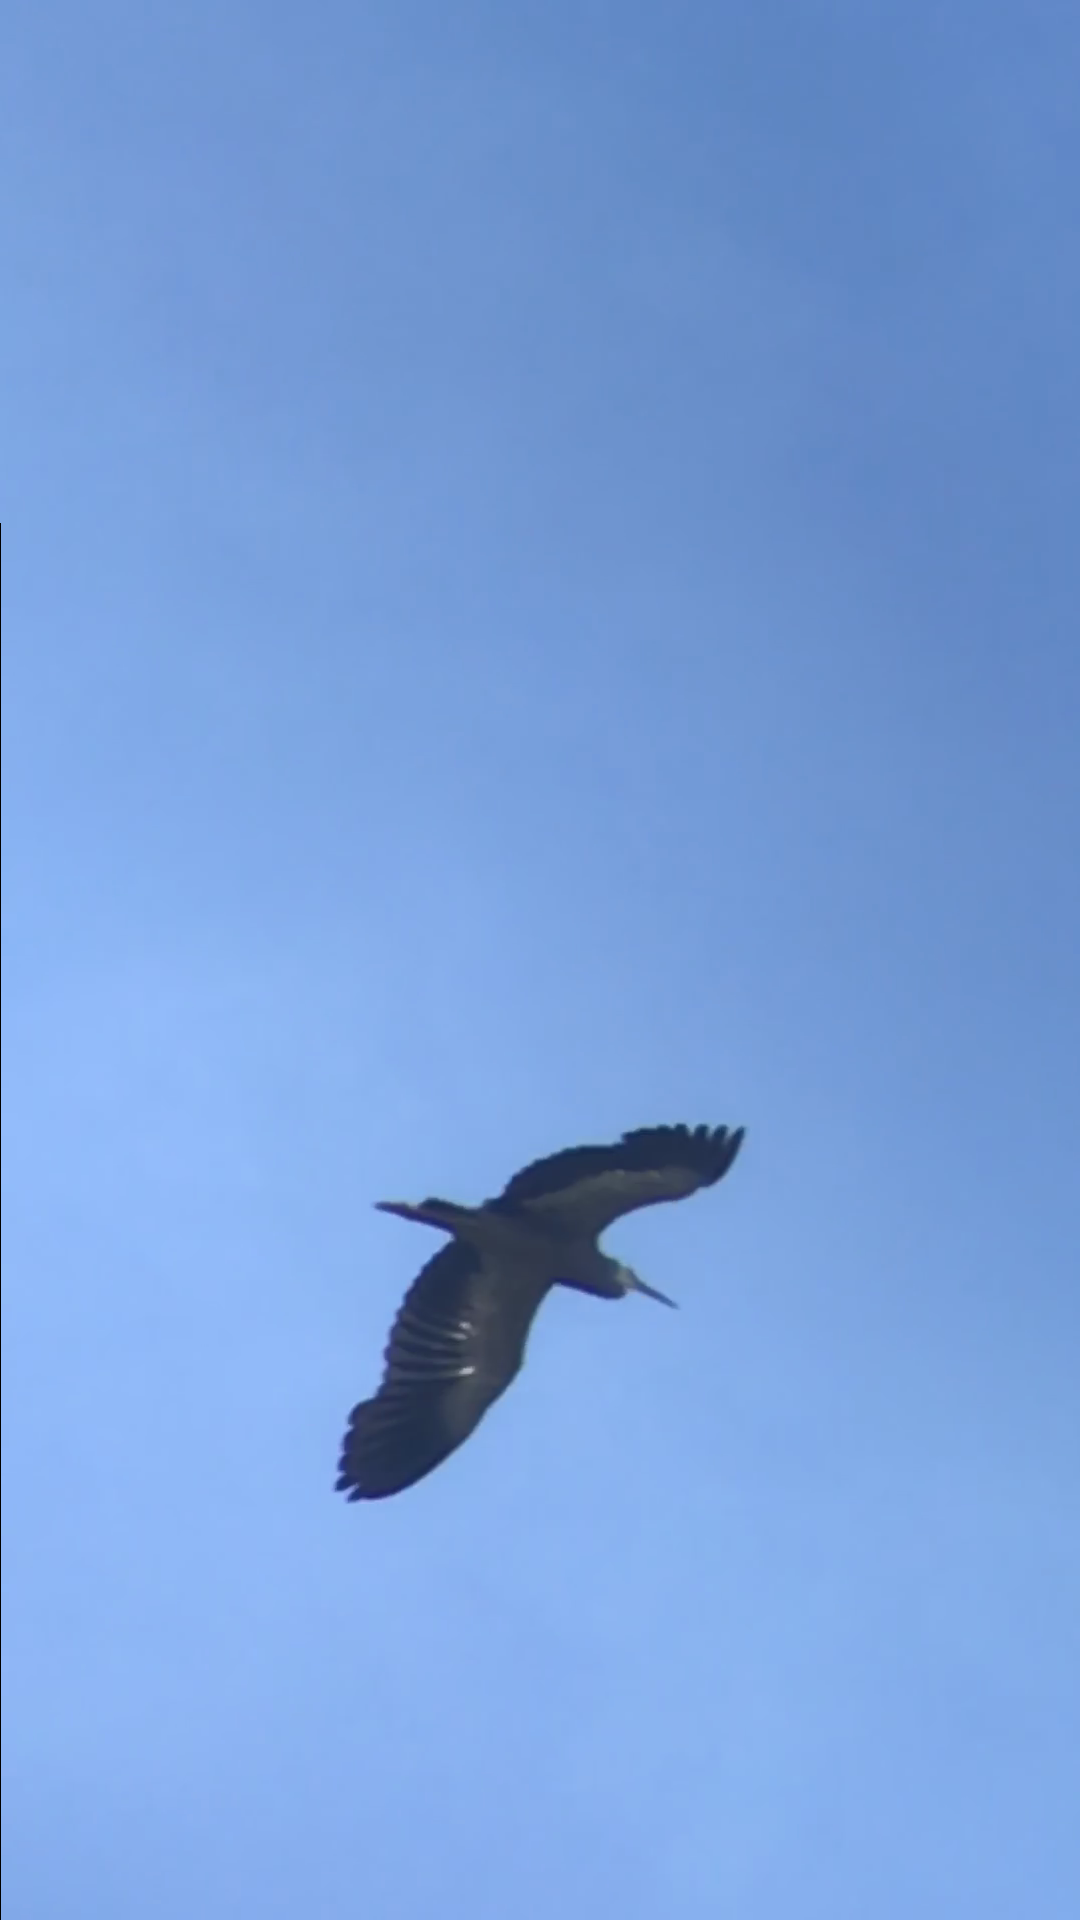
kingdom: Animalia
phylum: Chordata
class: Aves
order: Pelecaniformes
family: Ardeidae
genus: Egretta
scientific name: Egretta novaehollandiae
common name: White-faced heron
